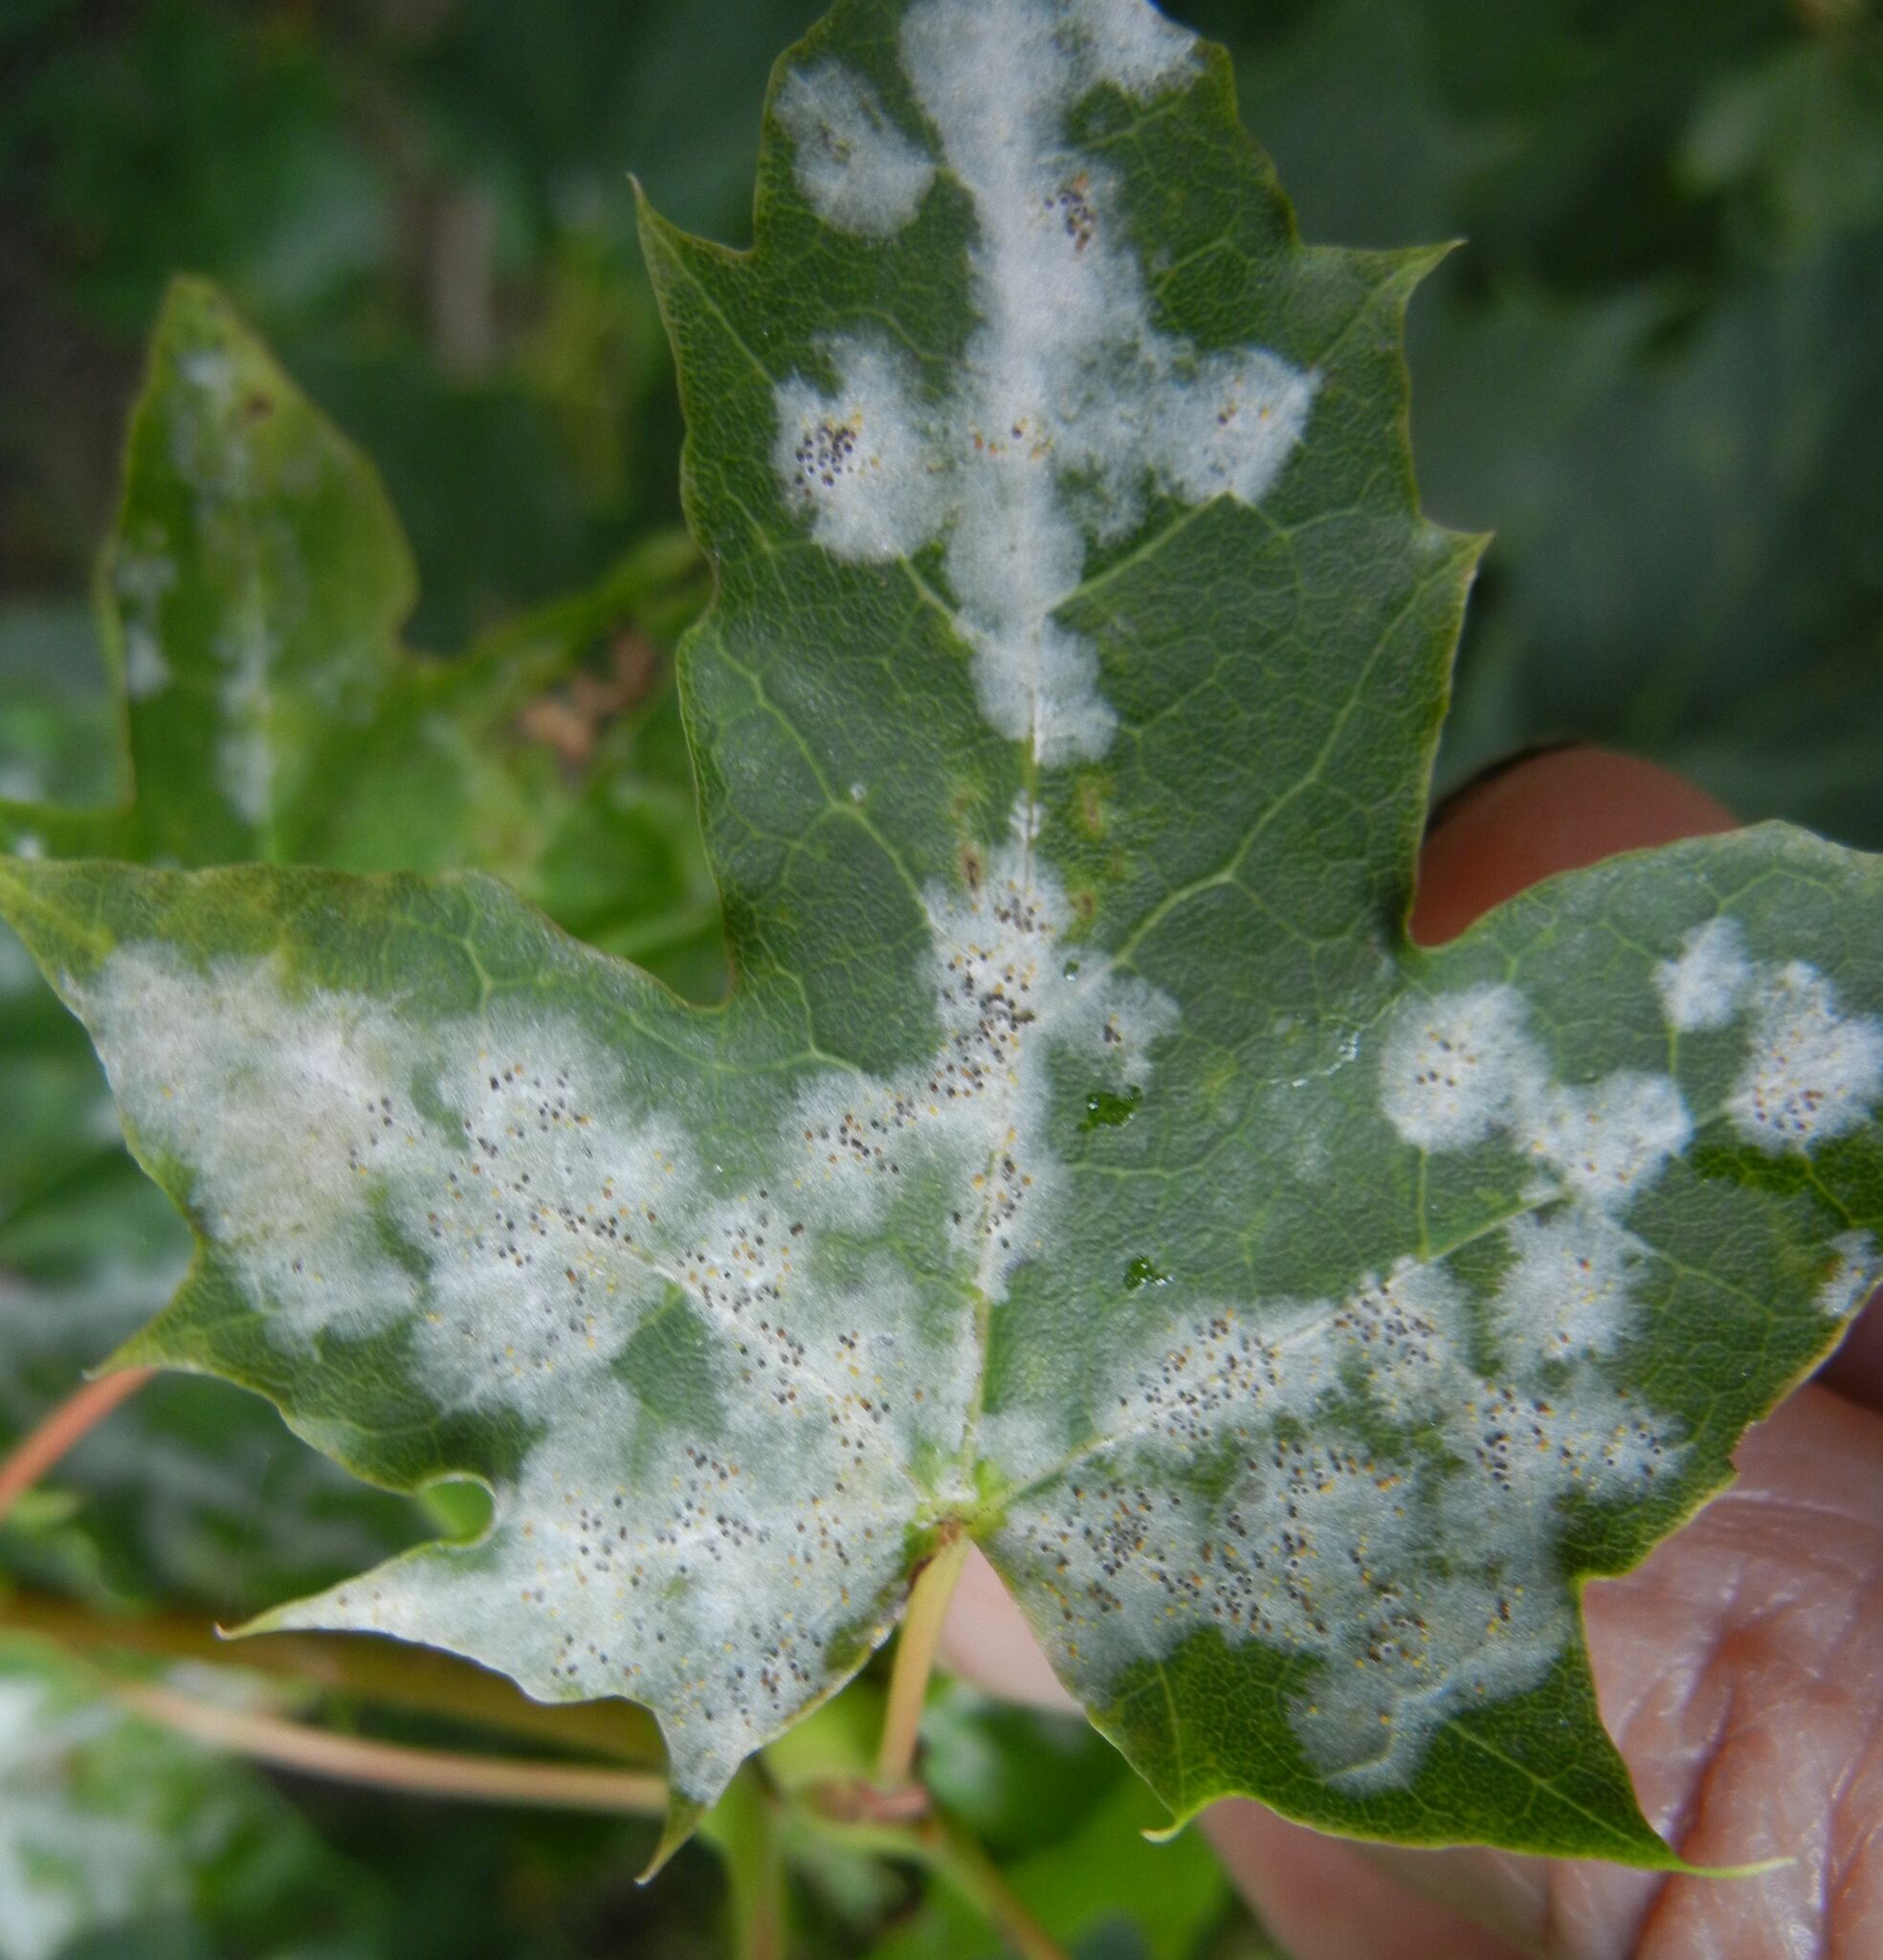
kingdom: Fungi
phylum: Ascomycota
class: Leotiomycetes
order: Helotiales
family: Erysiphaceae
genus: Sawadaea
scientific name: Sawadaea tulasnei
